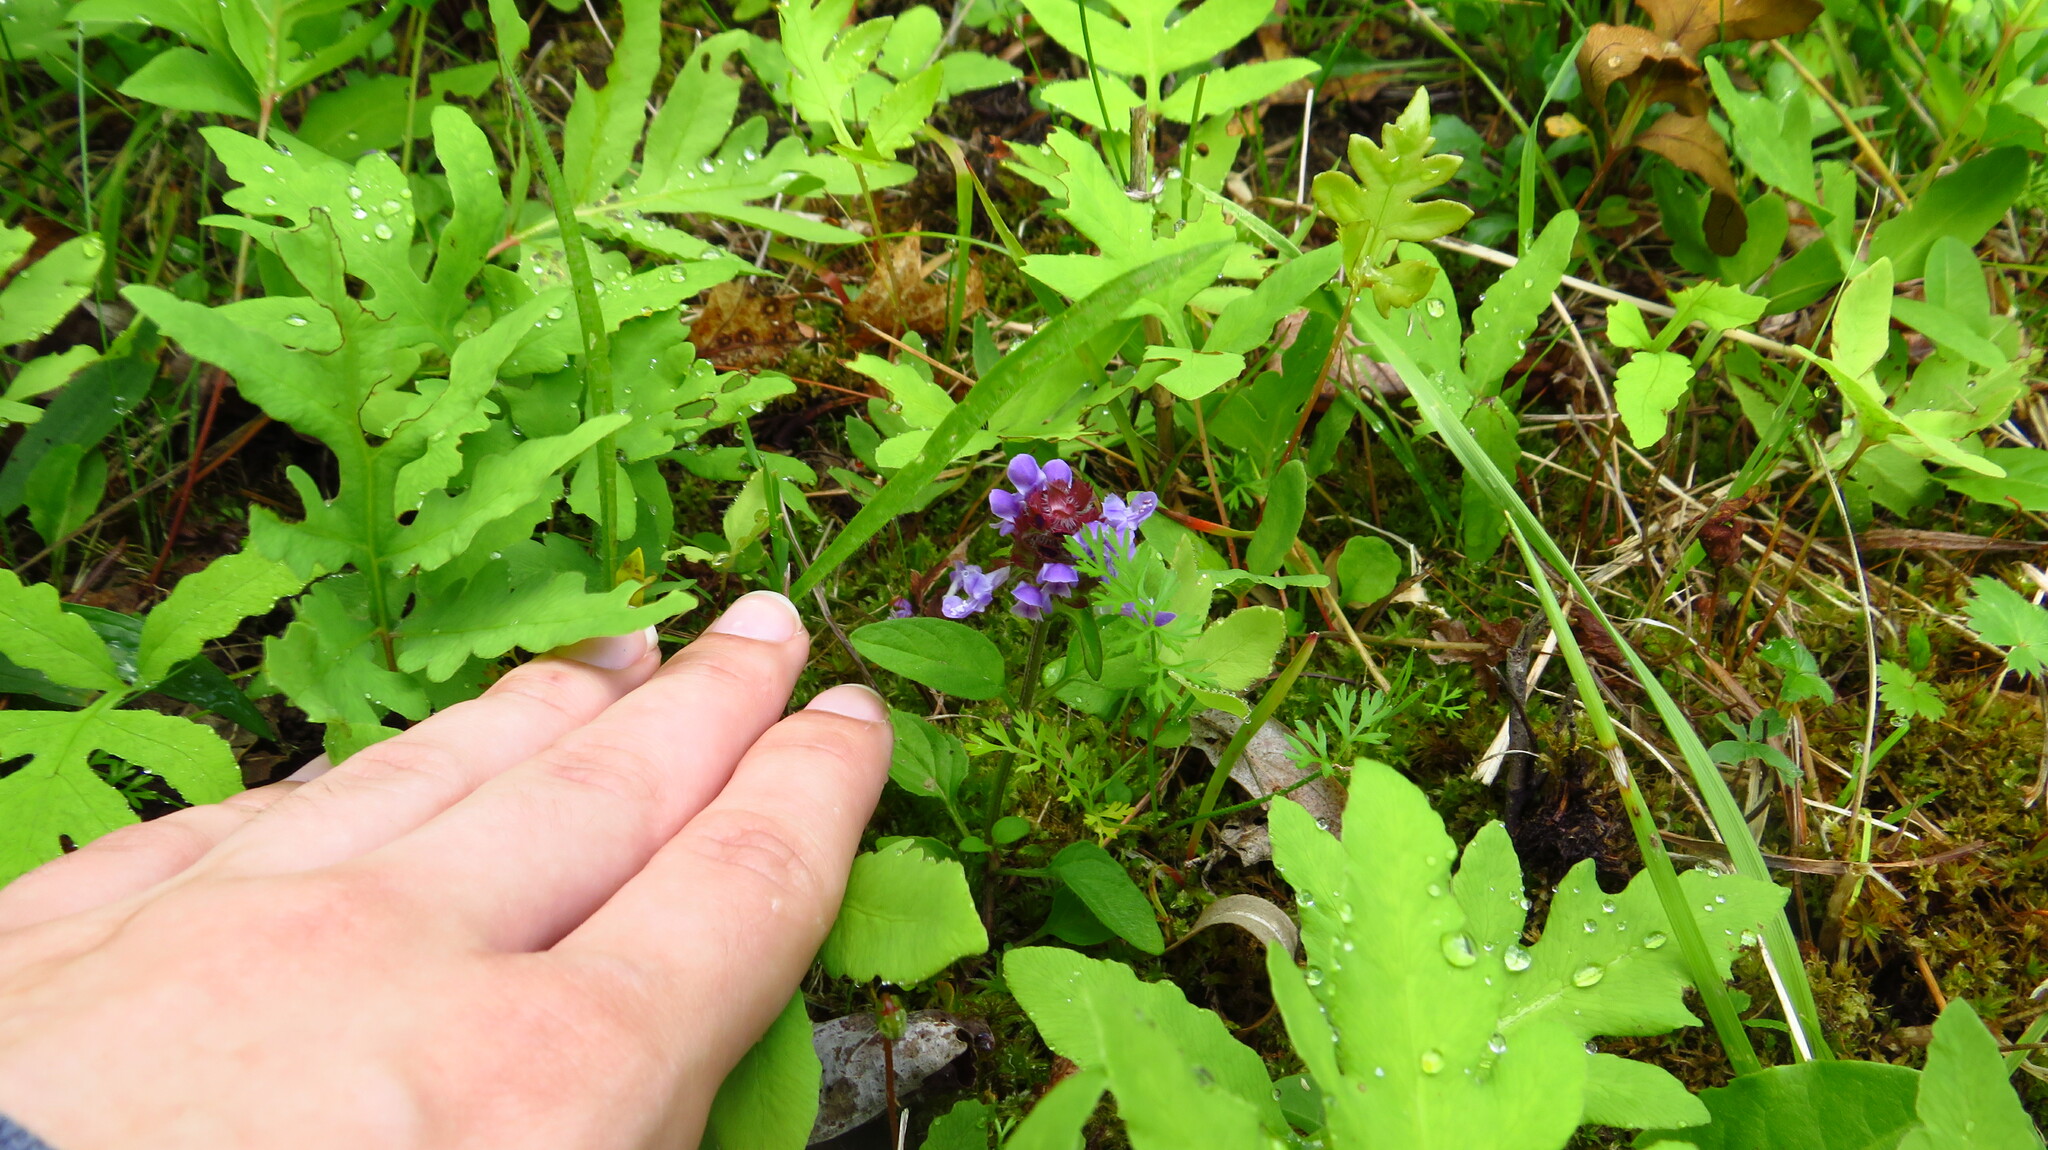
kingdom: Plantae
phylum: Tracheophyta
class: Magnoliopsida
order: Lamiales
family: Lamiaceae
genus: Prunella
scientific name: Prunella vulgaris
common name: Heal-all
